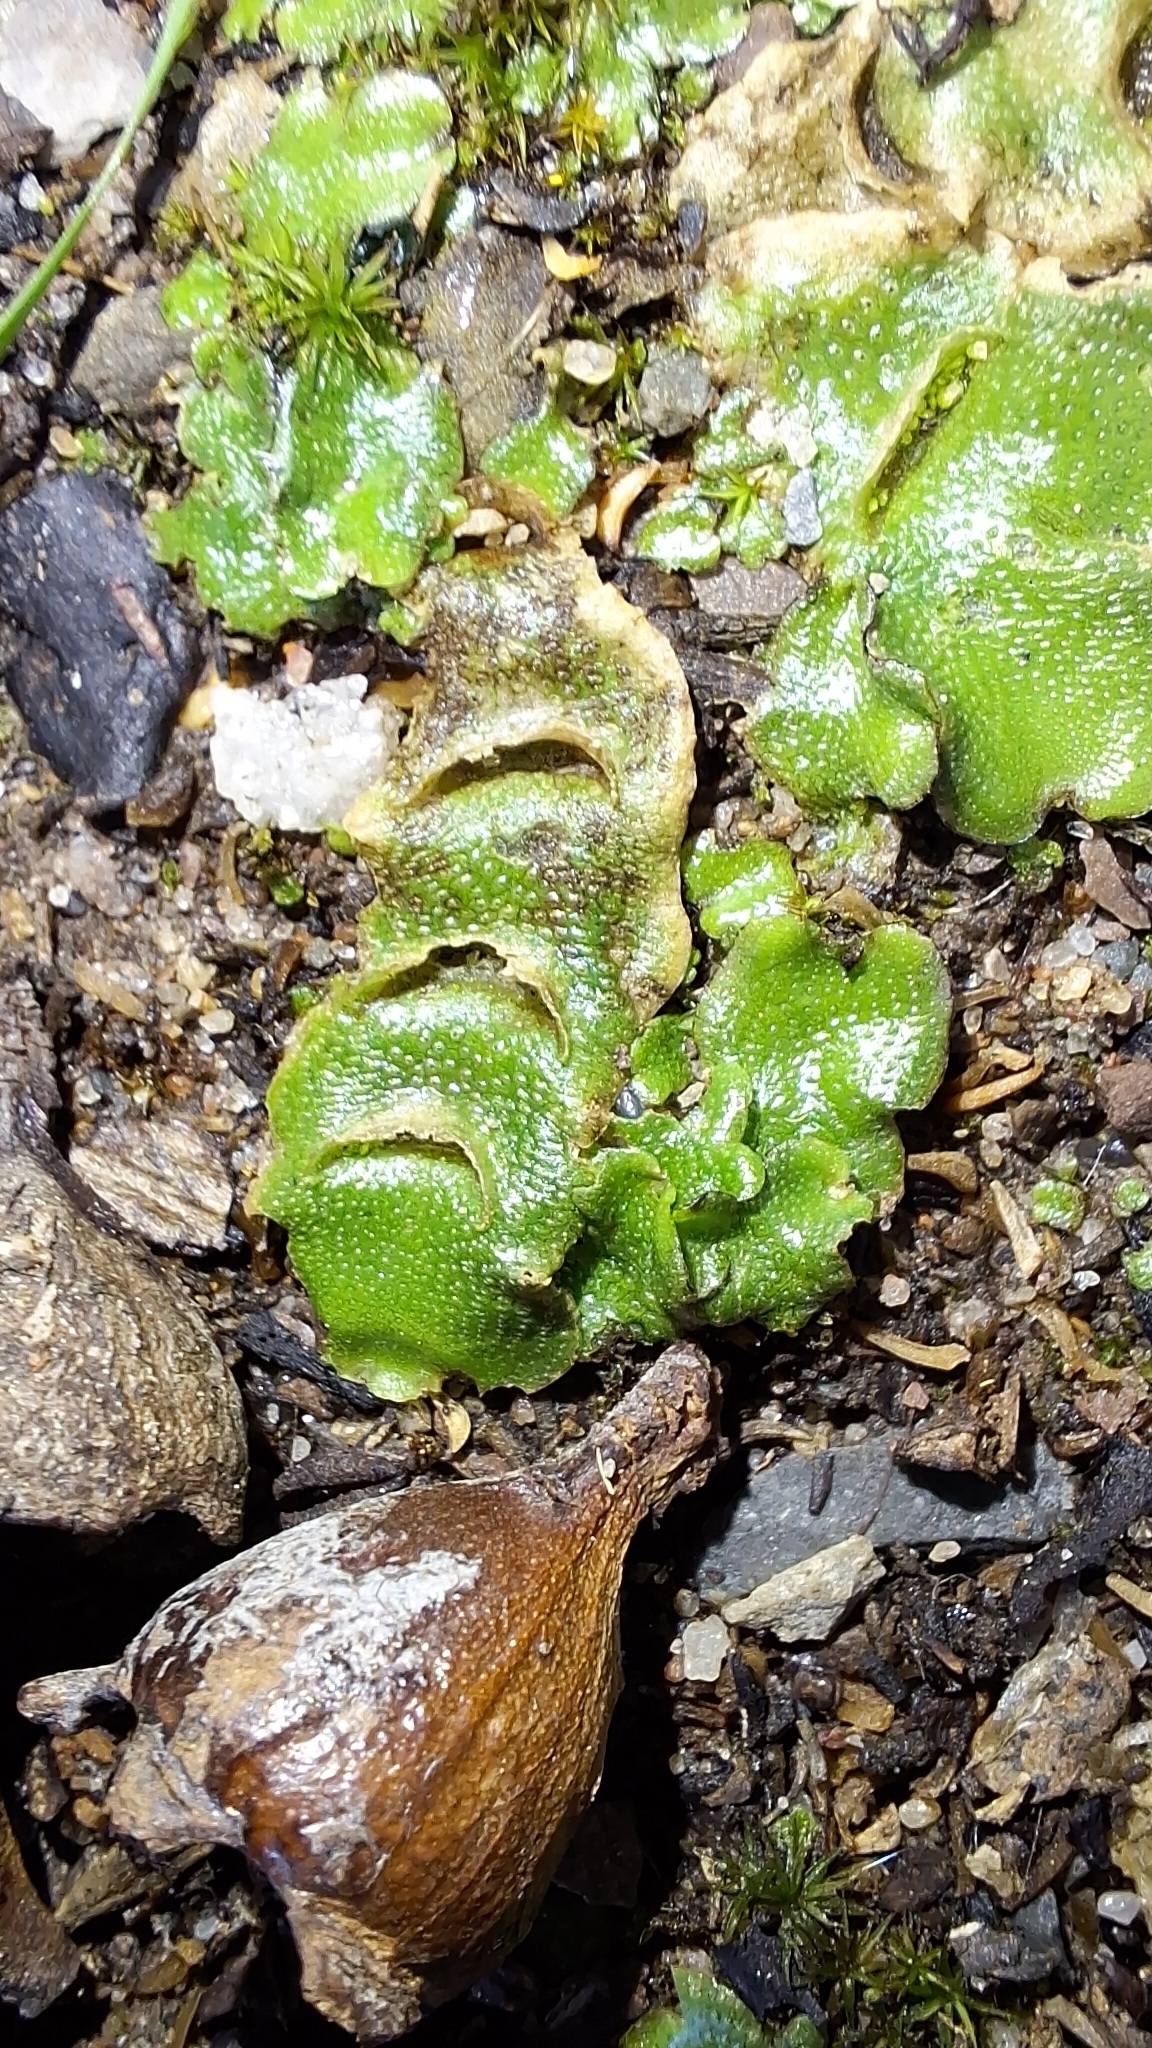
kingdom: Plantae
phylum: Marchantiophyta
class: Marchantiopsida
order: Lunulariales
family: Lunulariaceae
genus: Lunularia
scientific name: Lunularia cruciata
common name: Crescent-cup liverwort
